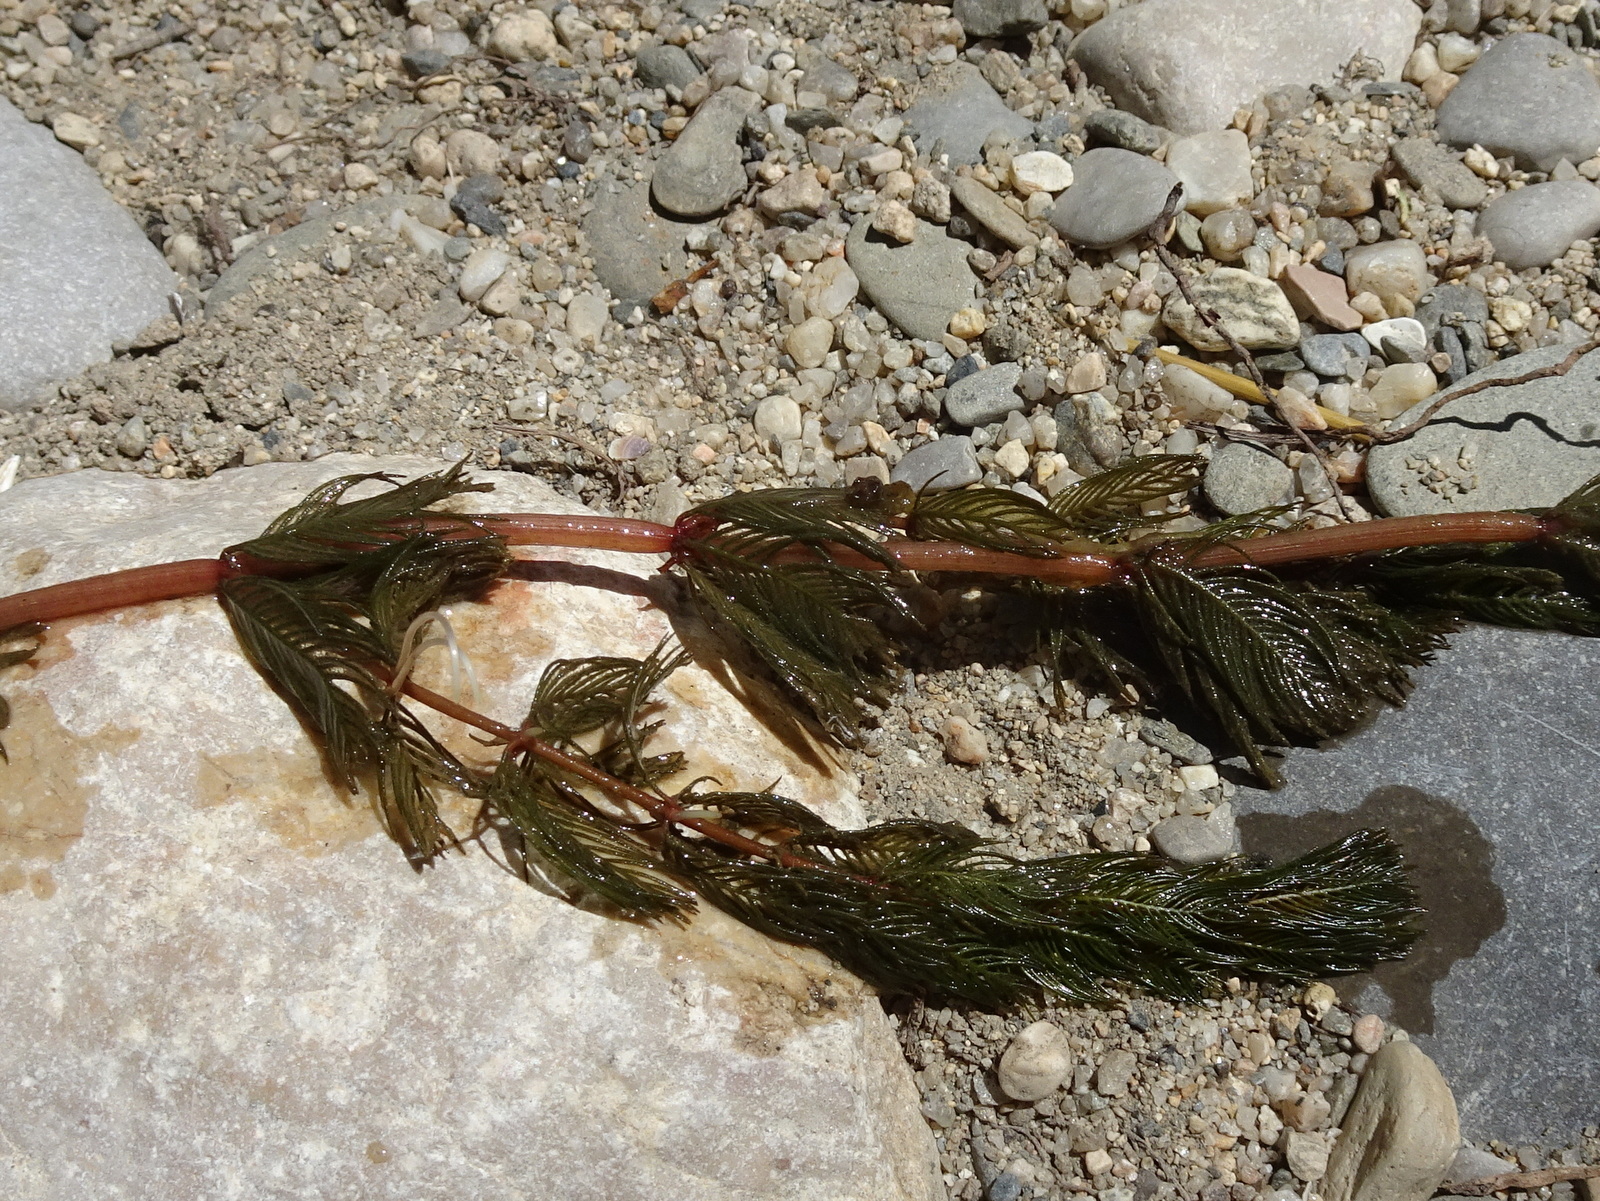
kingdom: Plantae
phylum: Tracheophyta
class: Magnoliopsida
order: Saxifragales
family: Haloragaceae
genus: Myriophyllum
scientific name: Myriophyllum spicatum
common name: Spiked water-milfoil
